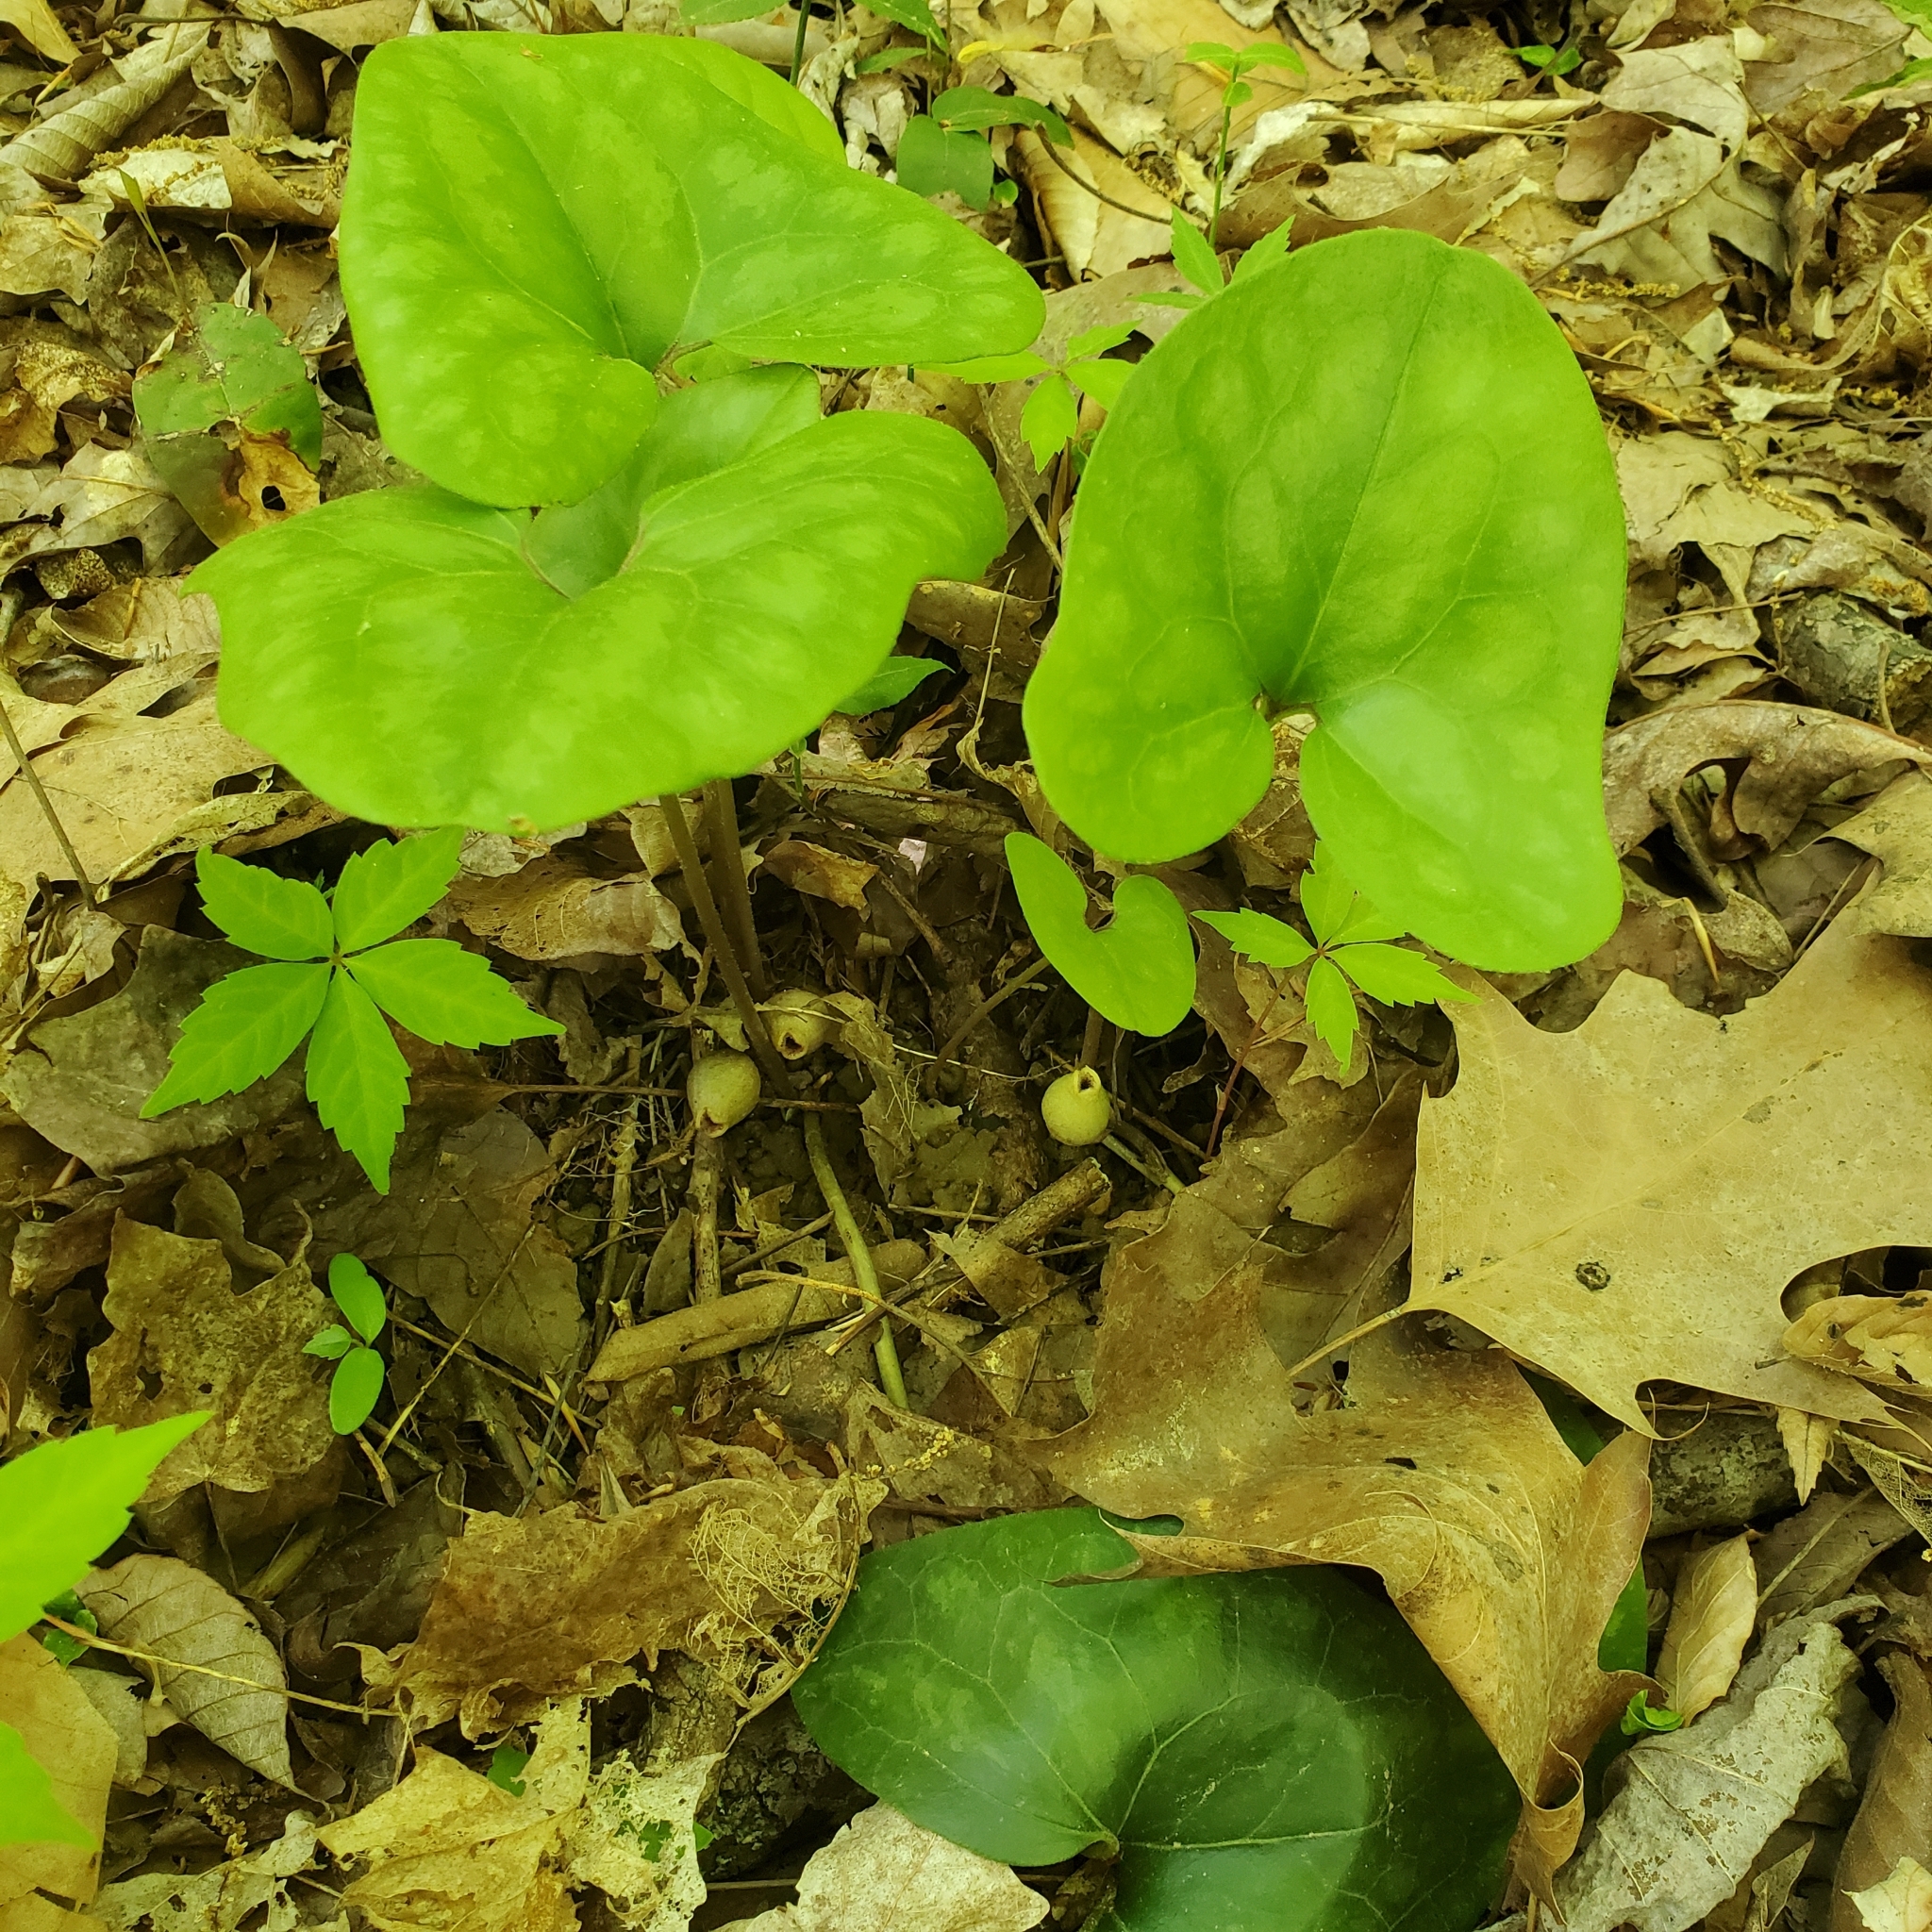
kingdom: Plantae
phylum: Tracheophyta
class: Magnoliopsida
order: Piperales
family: Aristolochiaceae
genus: Hexastylis
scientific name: Hexastylis arifolia
